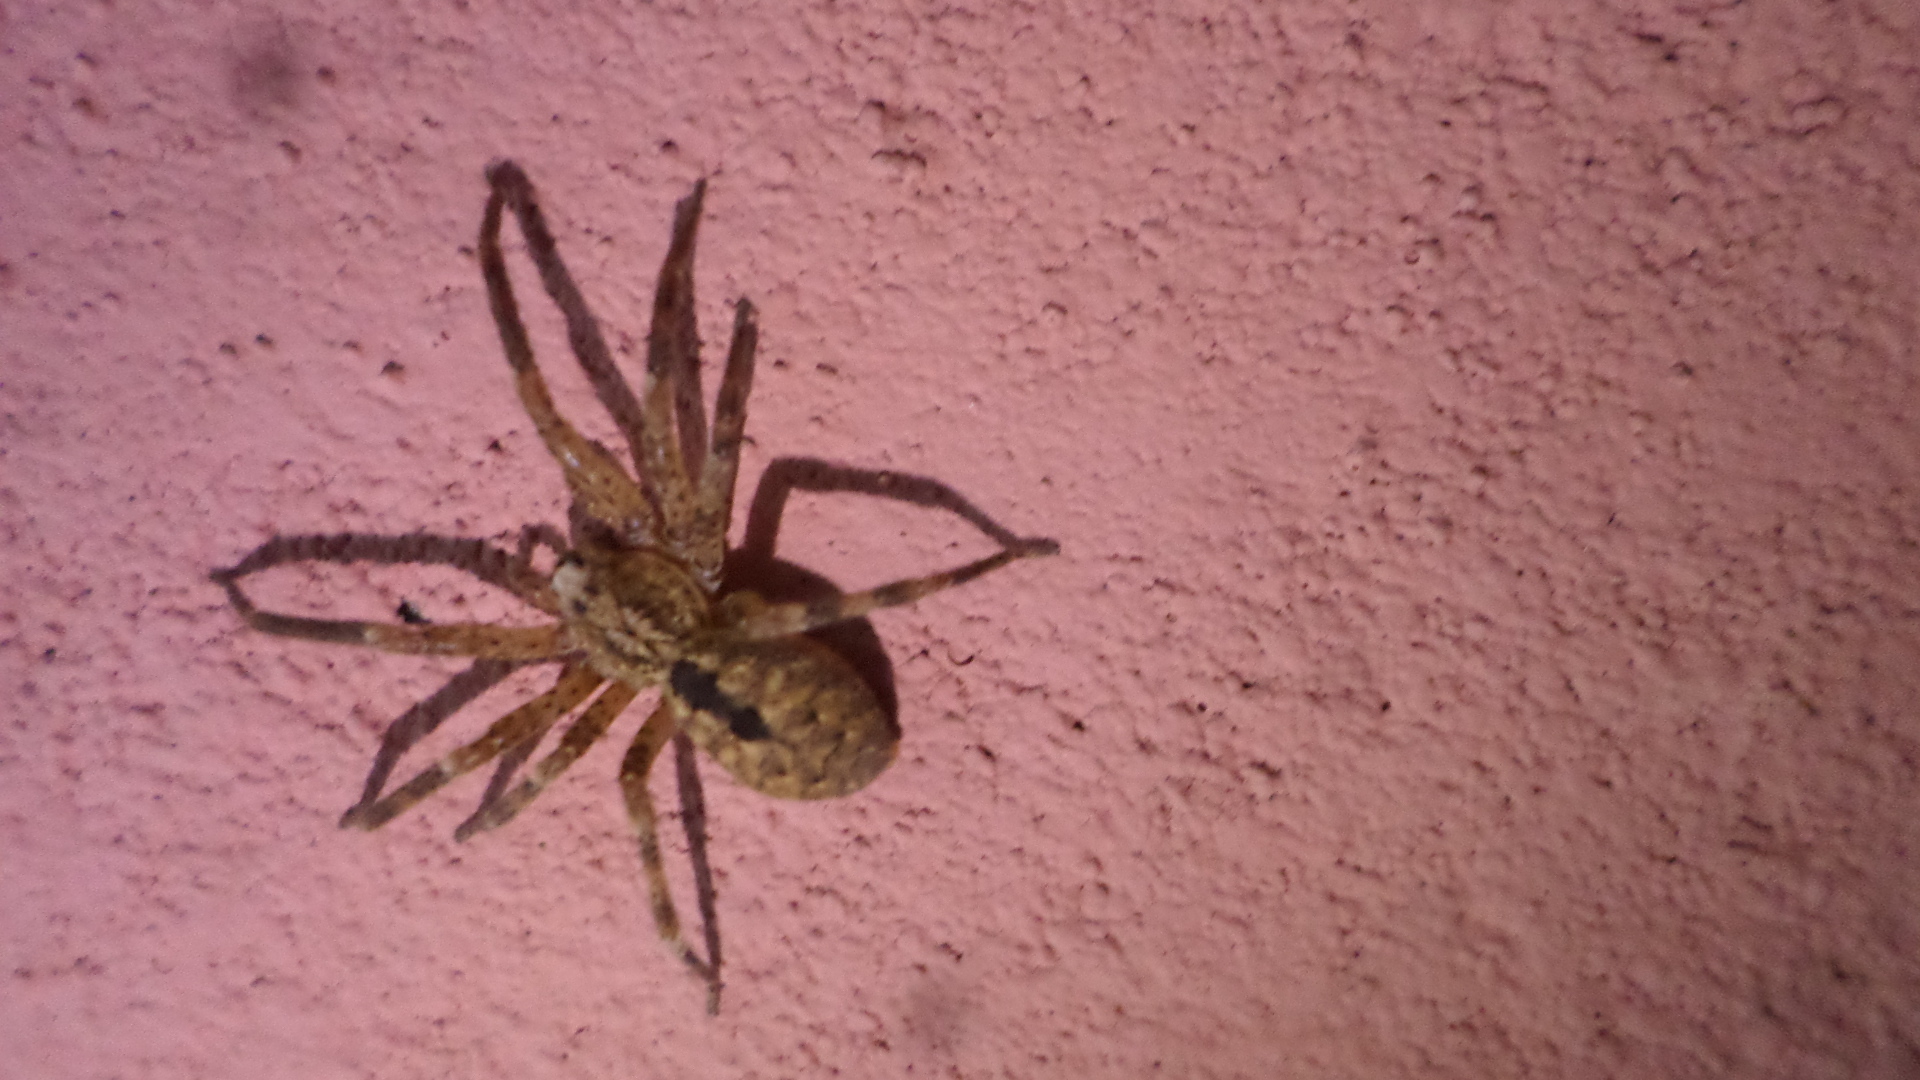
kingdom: Animalia
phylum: Arthropoda
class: Arachnida
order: Araneae
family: Zoropsidae
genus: Zoropsis
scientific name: Zoropsis spinimana
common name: Zoropsid spider
